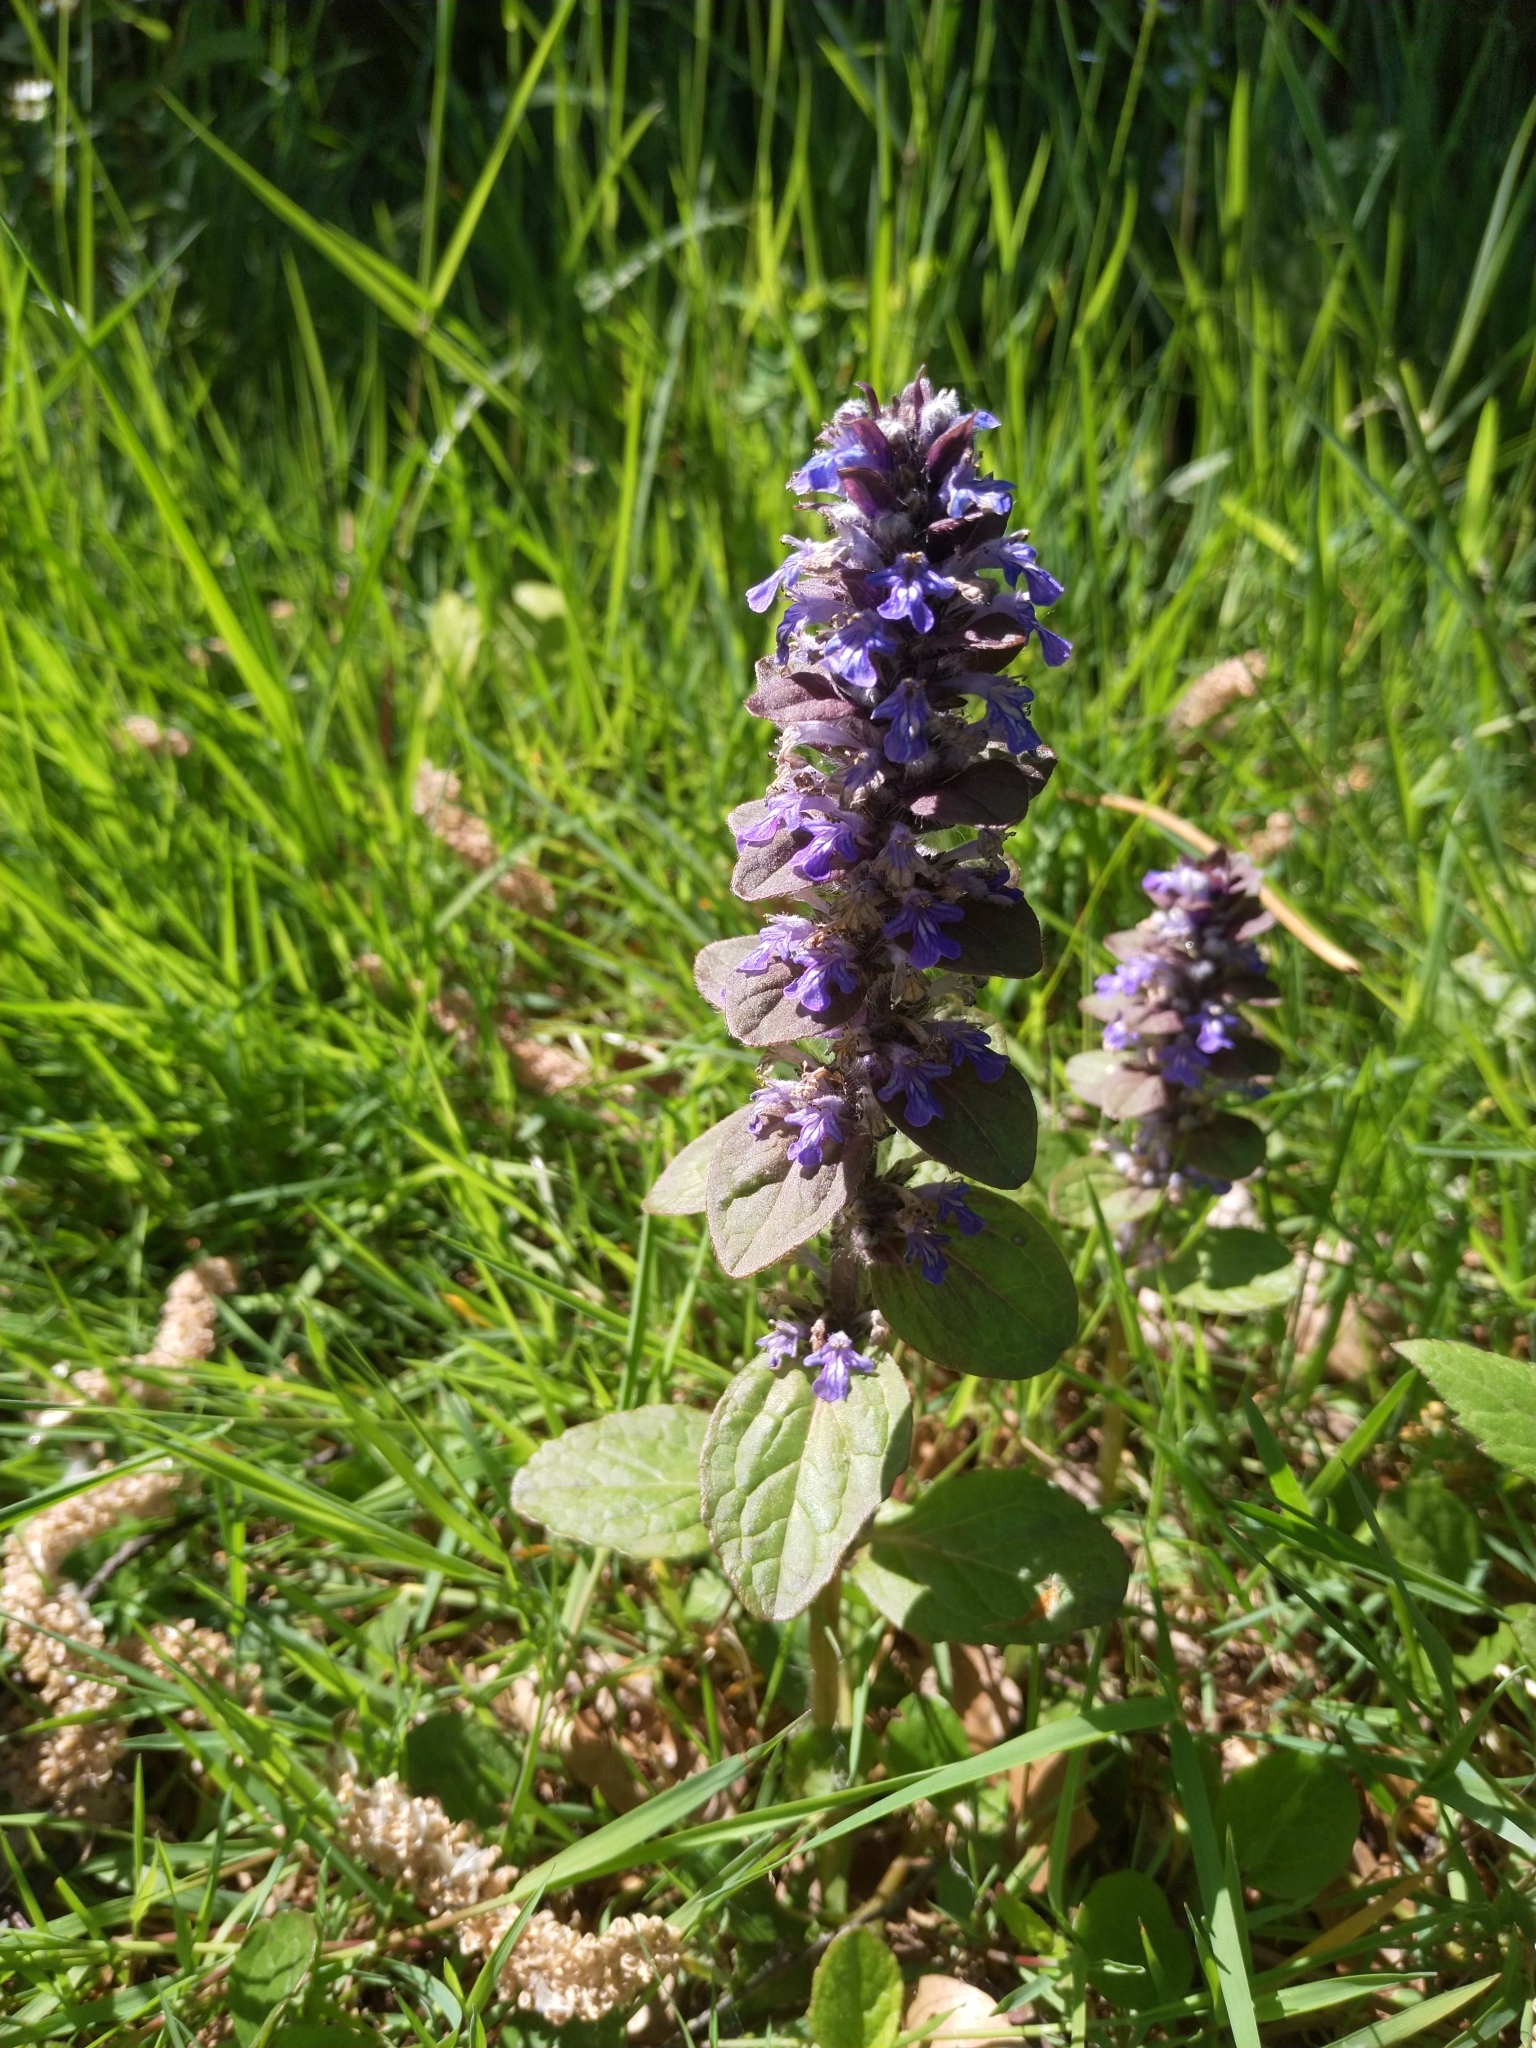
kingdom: Plantae
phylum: Tracheophyta
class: Magnoliopsida
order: Lamiales
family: Lamiaceae
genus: Ajuga
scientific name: Ajuga reptans
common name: Bugle
